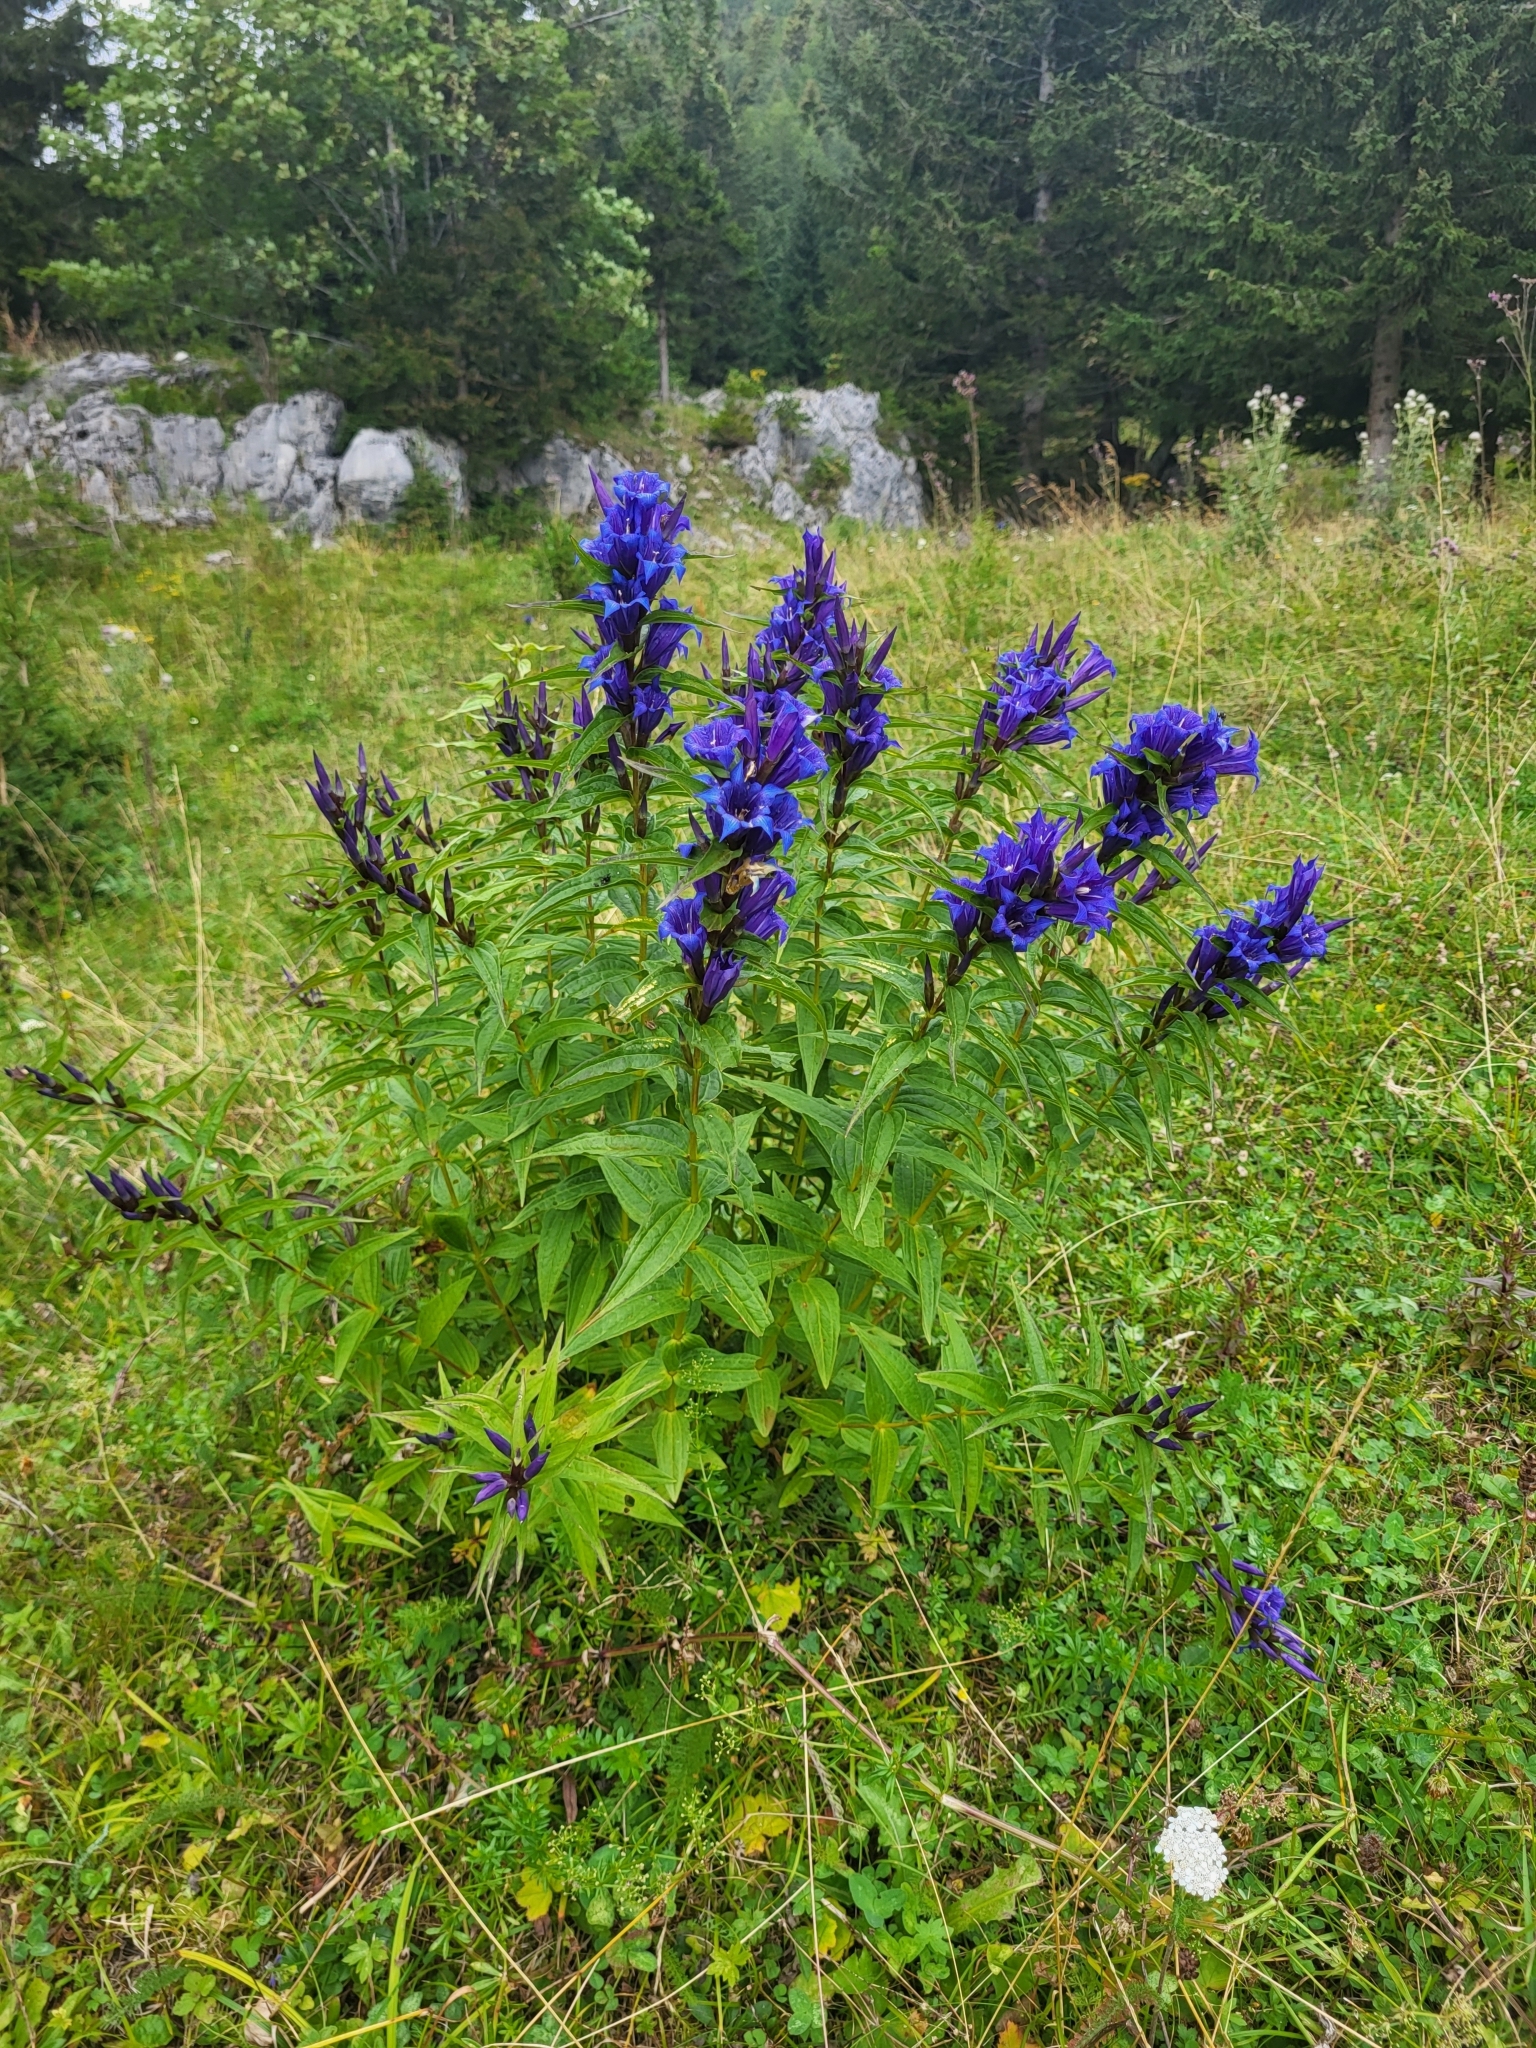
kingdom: Plantae
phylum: Tracheophyta
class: Magnoliopsida
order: Gentianales
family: Gentianaceae
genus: Gentiana
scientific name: Gentiana asclepiadea
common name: Willow gentian
